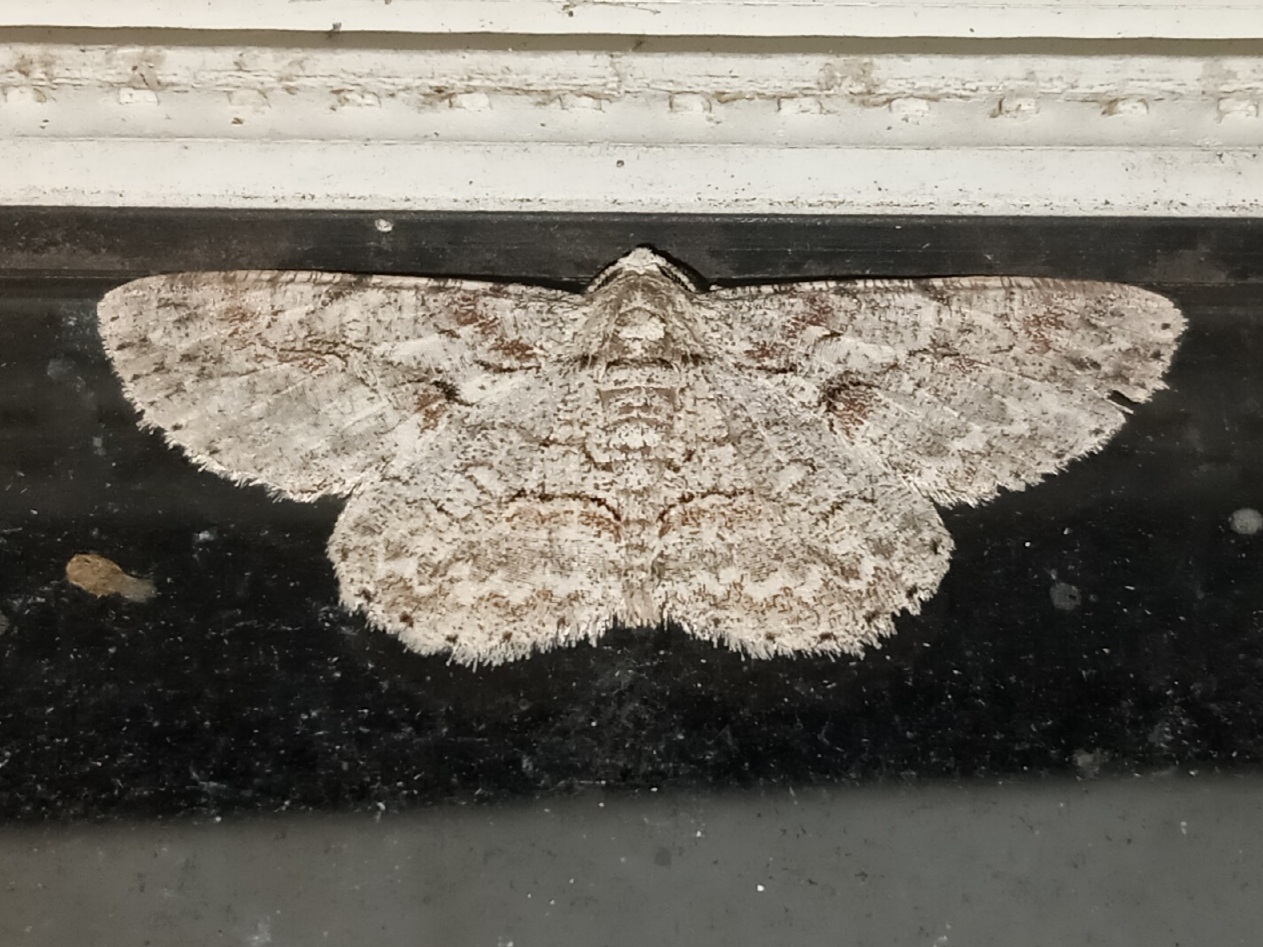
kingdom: Animalia
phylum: Arthropoda
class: Insecta
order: Lepidoptera
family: Geometridae
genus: Iridopsis
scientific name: Iridopsis defectaria
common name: Brown-shaded gray
